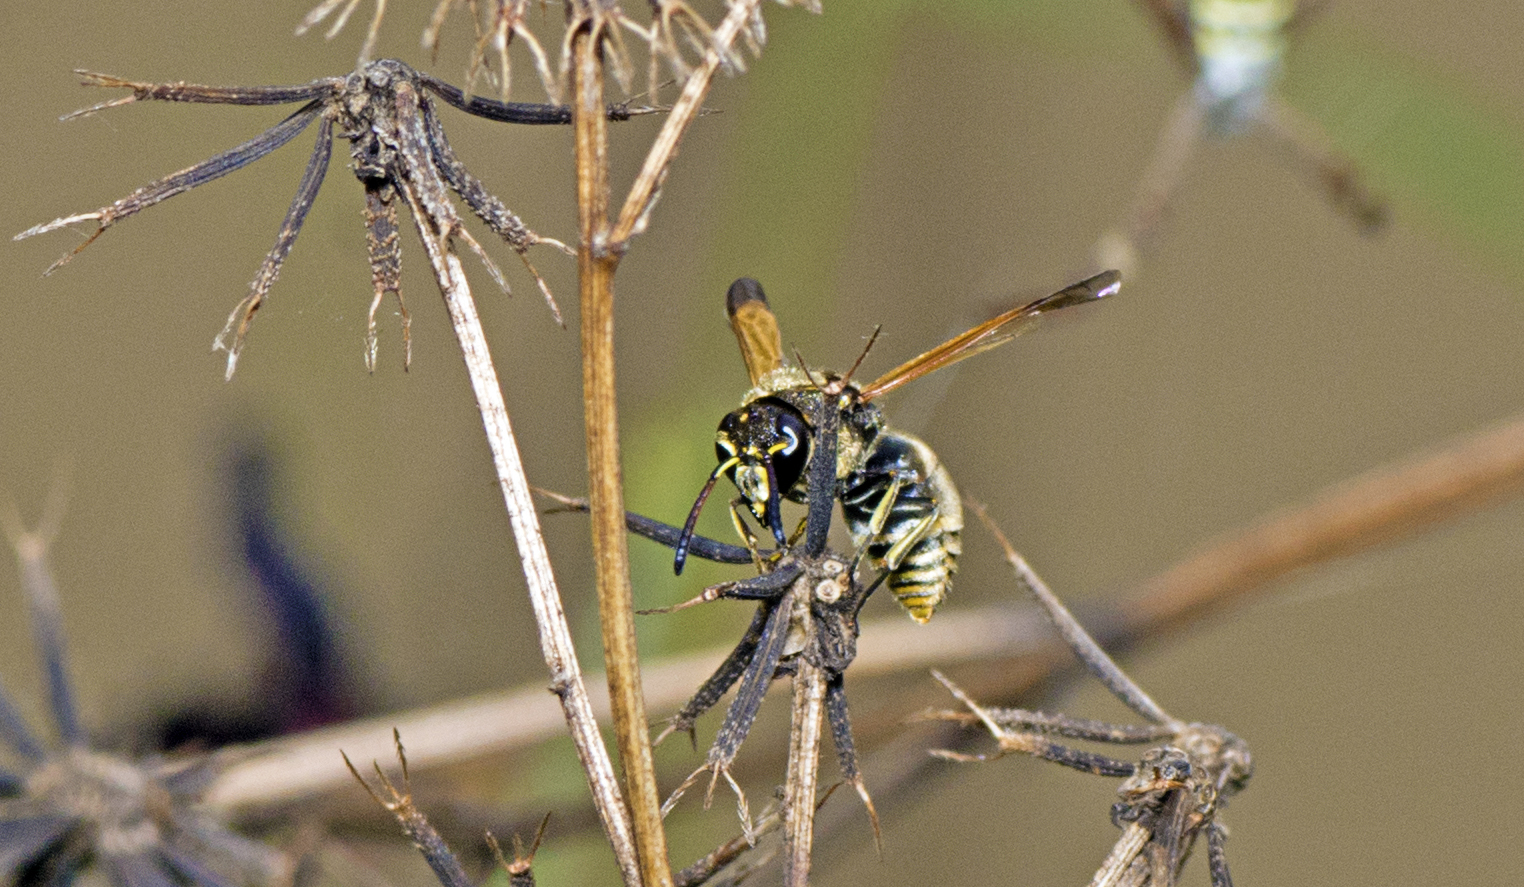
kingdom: Animalia
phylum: Arthropoda
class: Insecta
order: Hymenoptera
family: Eumenidae
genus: Pachodynerus
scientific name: Pachodynerus nasidens
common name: Key hole wasp
